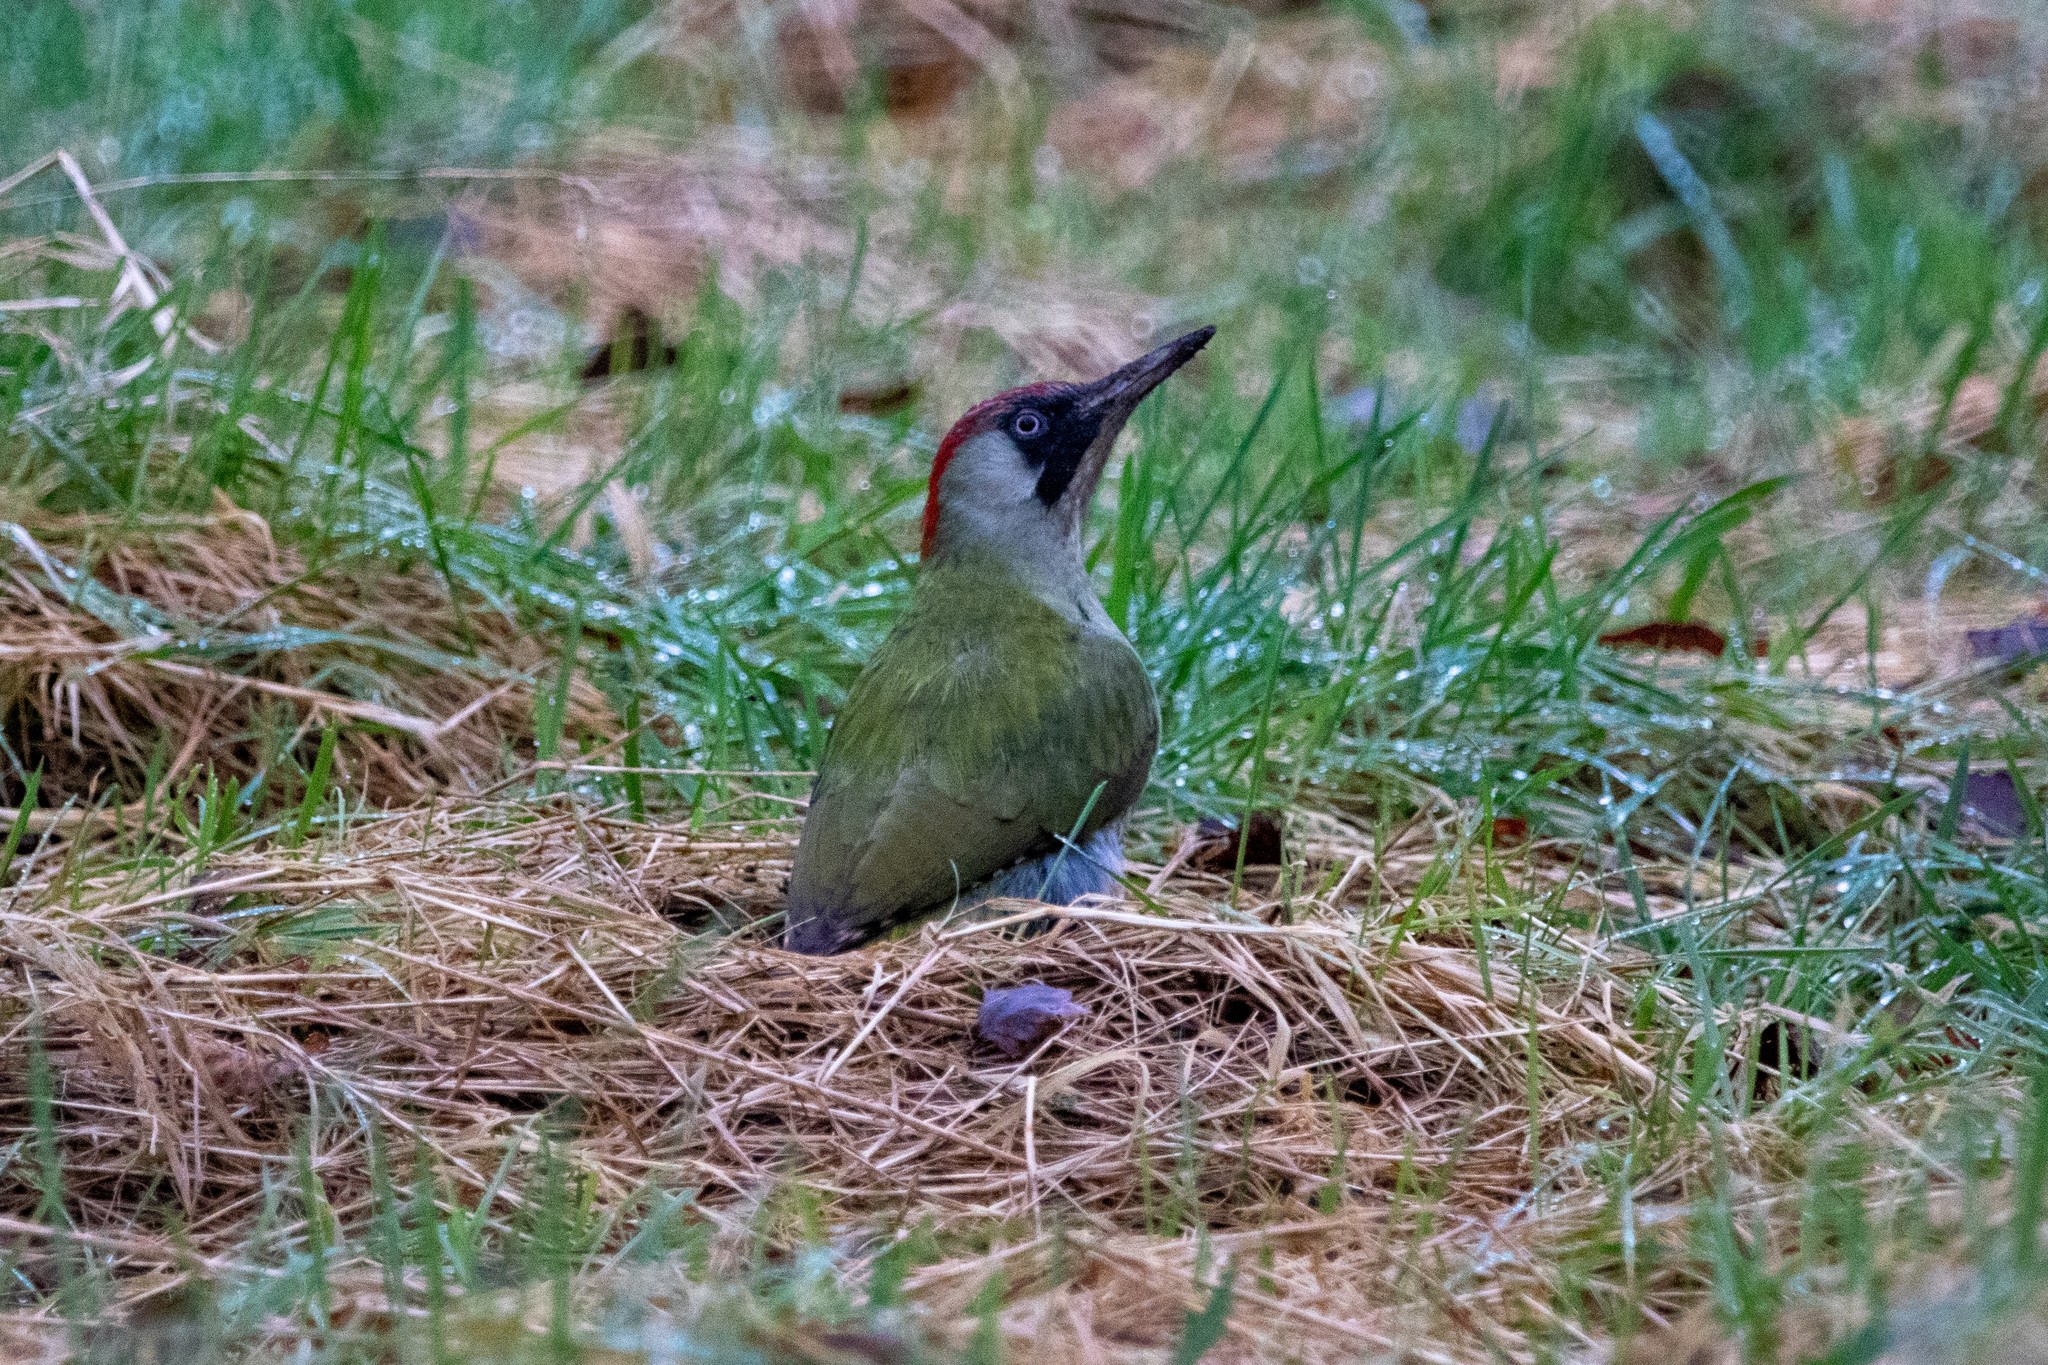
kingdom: Animalia
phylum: Chordata
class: Aves
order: Piciformes
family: Picidae
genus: Picus
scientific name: Picus viridis
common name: European green woodpecker
